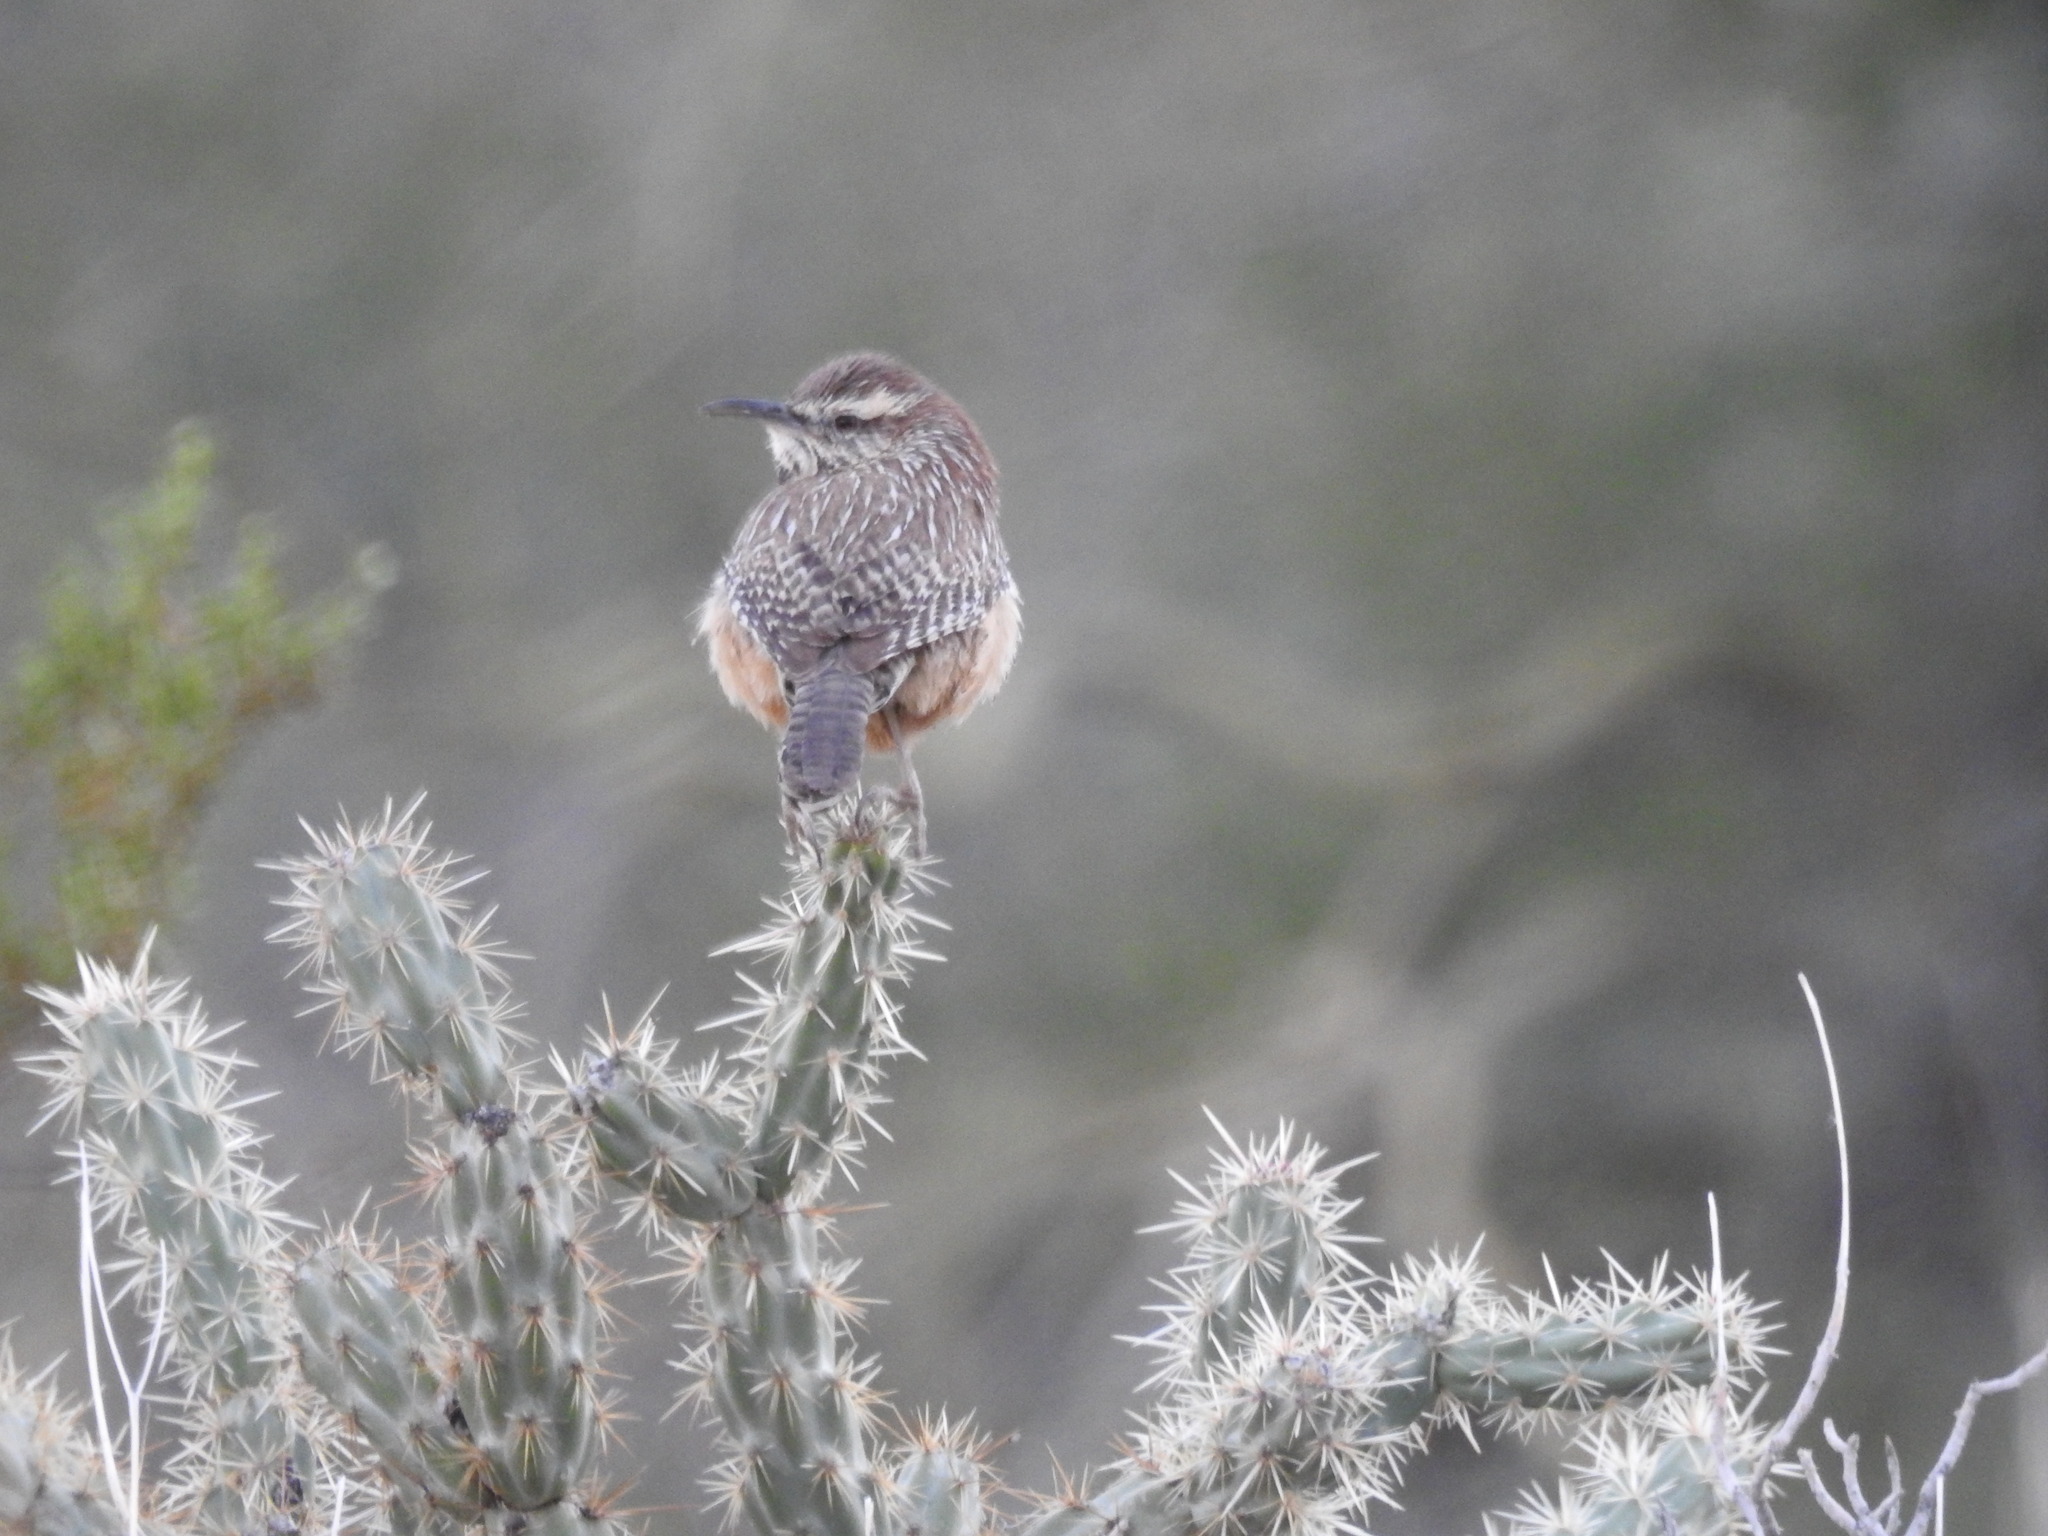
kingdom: Animalia
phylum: Chordata
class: Aves
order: Passeriformes
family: Troglodytidae
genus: Campylorhynchus
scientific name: Campylorhynchus brunneicapillus
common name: Cactus wren
